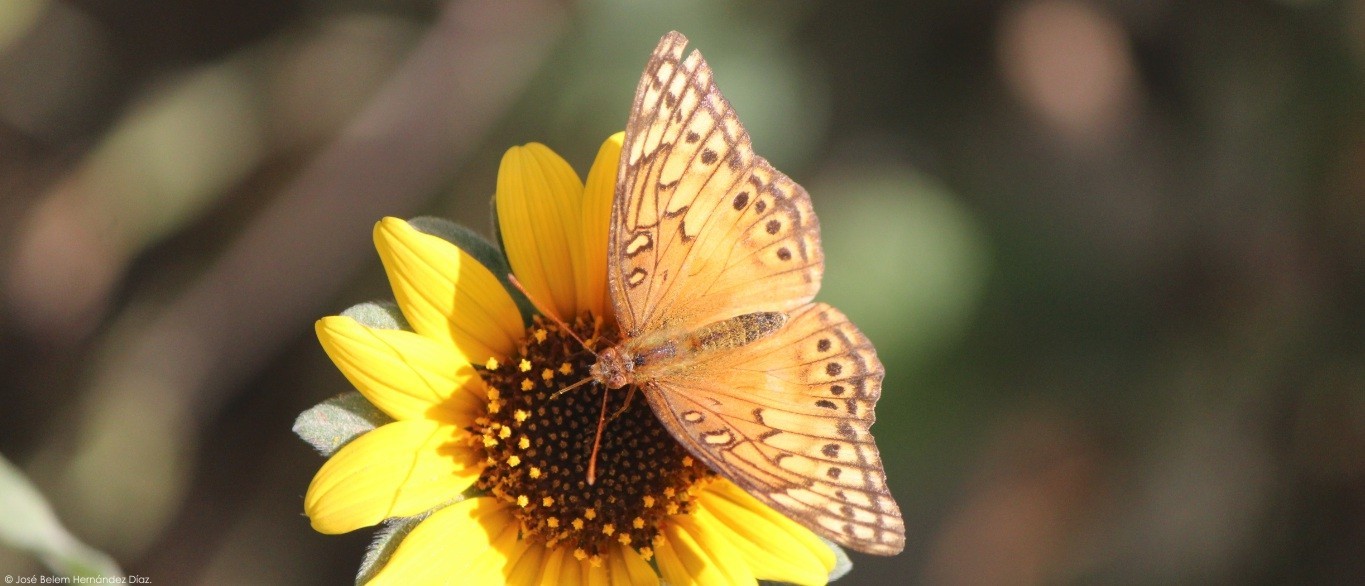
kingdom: Animalia
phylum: Arthropoda
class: Insecta
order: Lepidoptera
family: Nymphalidae
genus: Euptoieta
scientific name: Euptoieta hegesia
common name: Mexican fritillary
